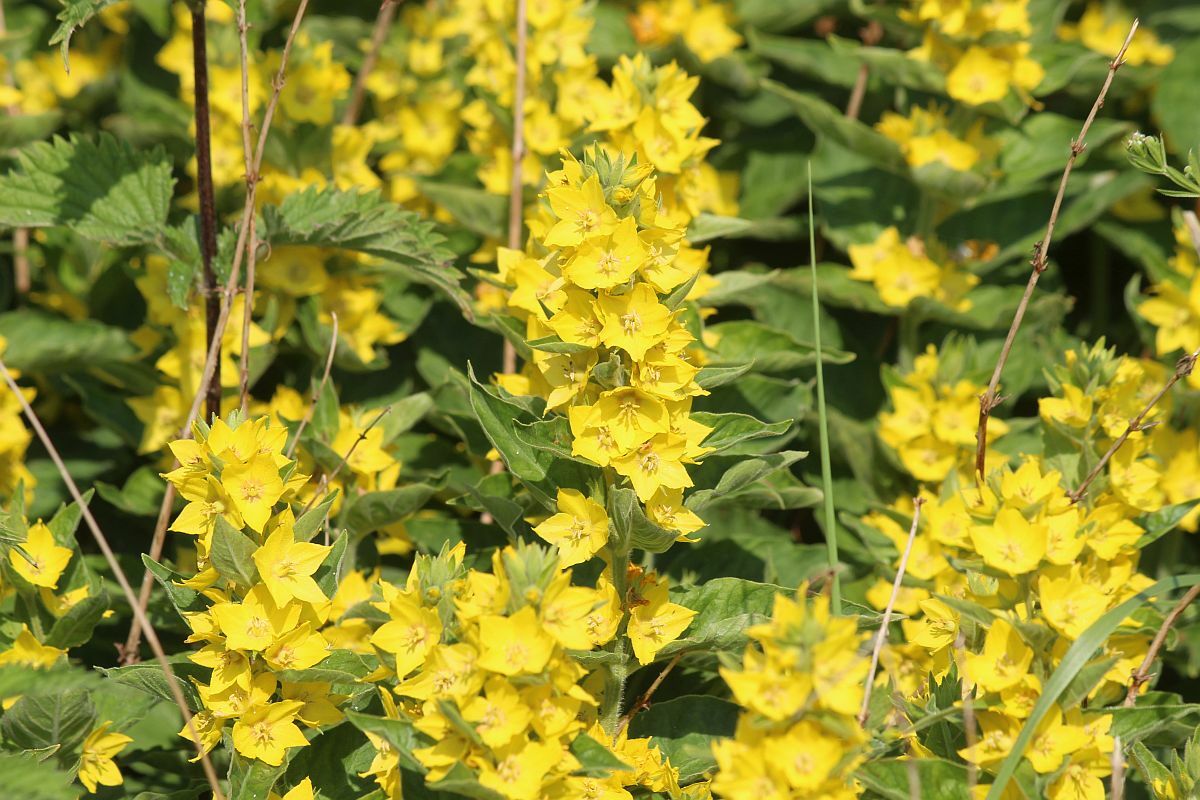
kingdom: Plantae
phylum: Tracheophyta
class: Magnoliopsida
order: Ericales
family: Primulaceae
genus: Lysimachia
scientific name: Lysimachia punctata
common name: Dotted loosestrife
